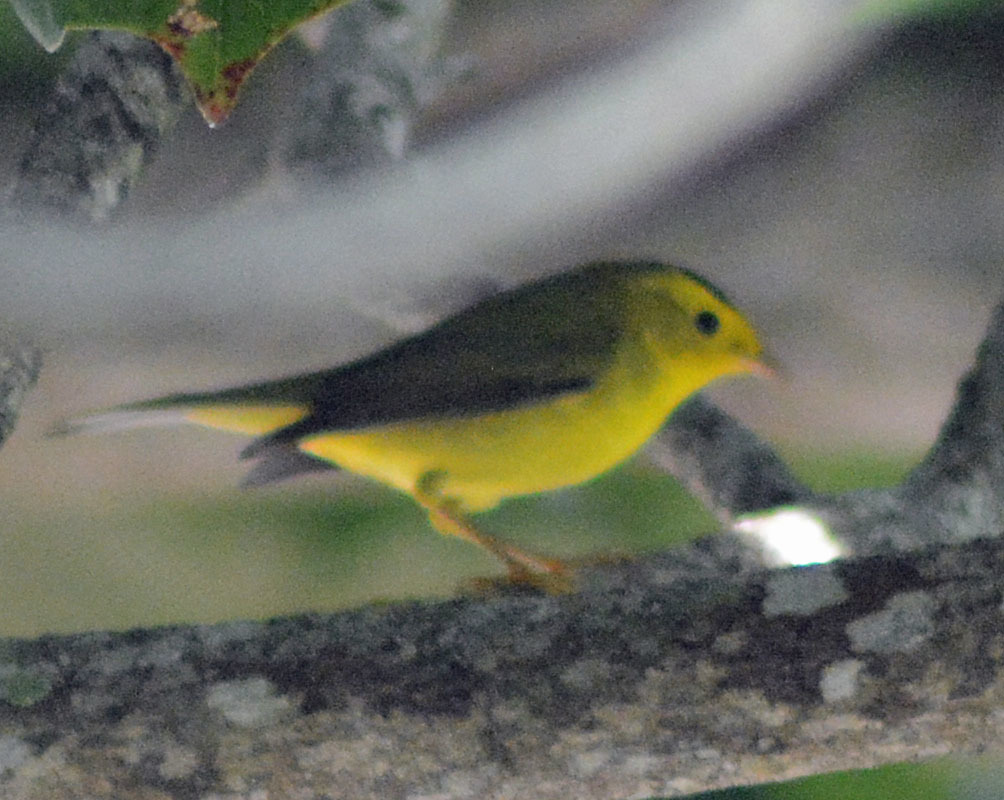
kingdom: Animalia
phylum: Chordata
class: Aves
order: Passeriformes
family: Parulidae
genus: Cardellina
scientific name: Cardellina pusilla
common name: Wilson's warbler
